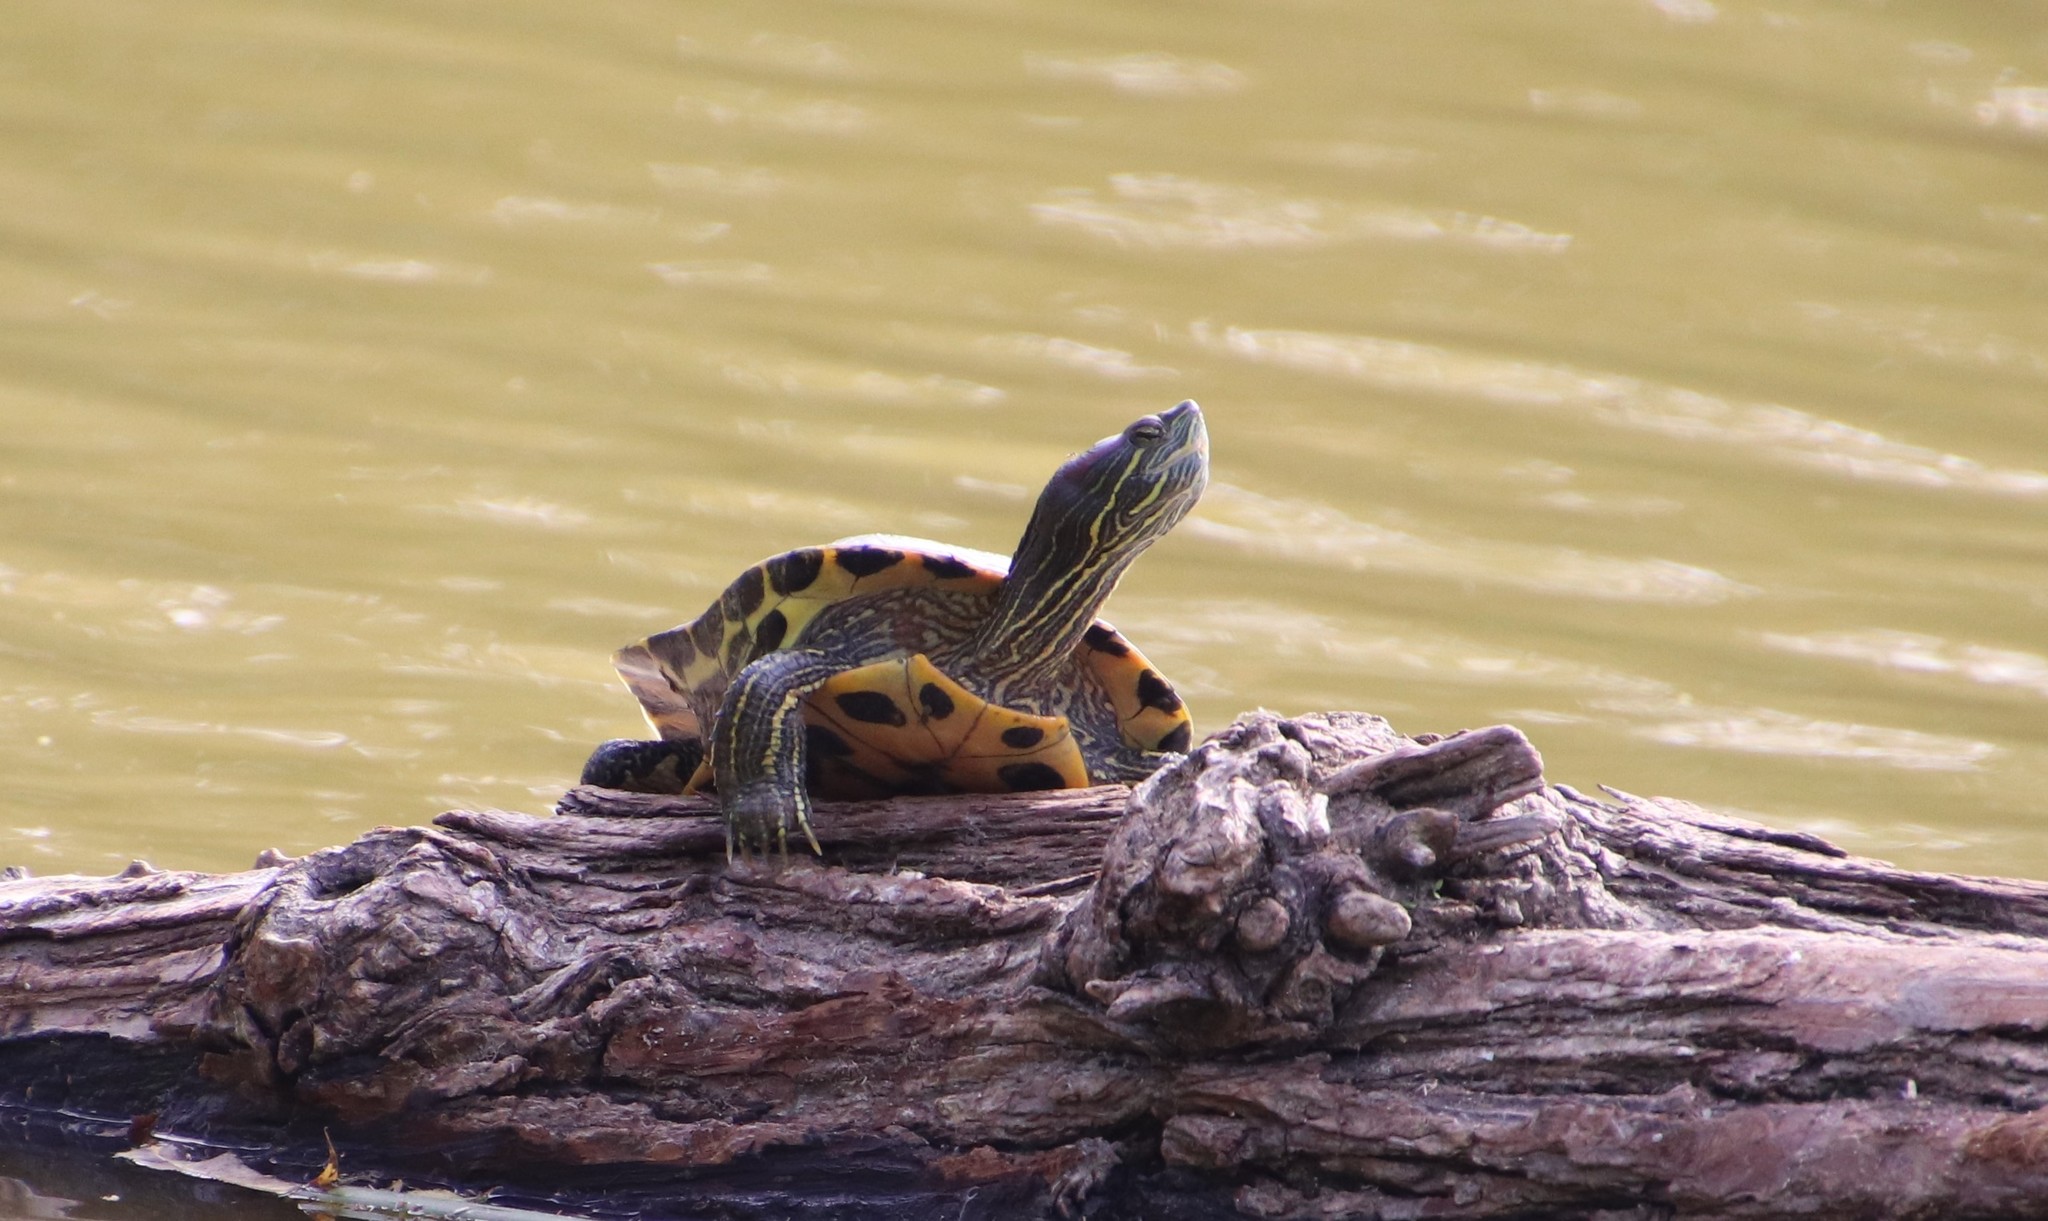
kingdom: Animalia
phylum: Chordata
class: Testudines
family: Emydidae
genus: Trachemys
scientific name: Trachemys scripta
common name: Slider
